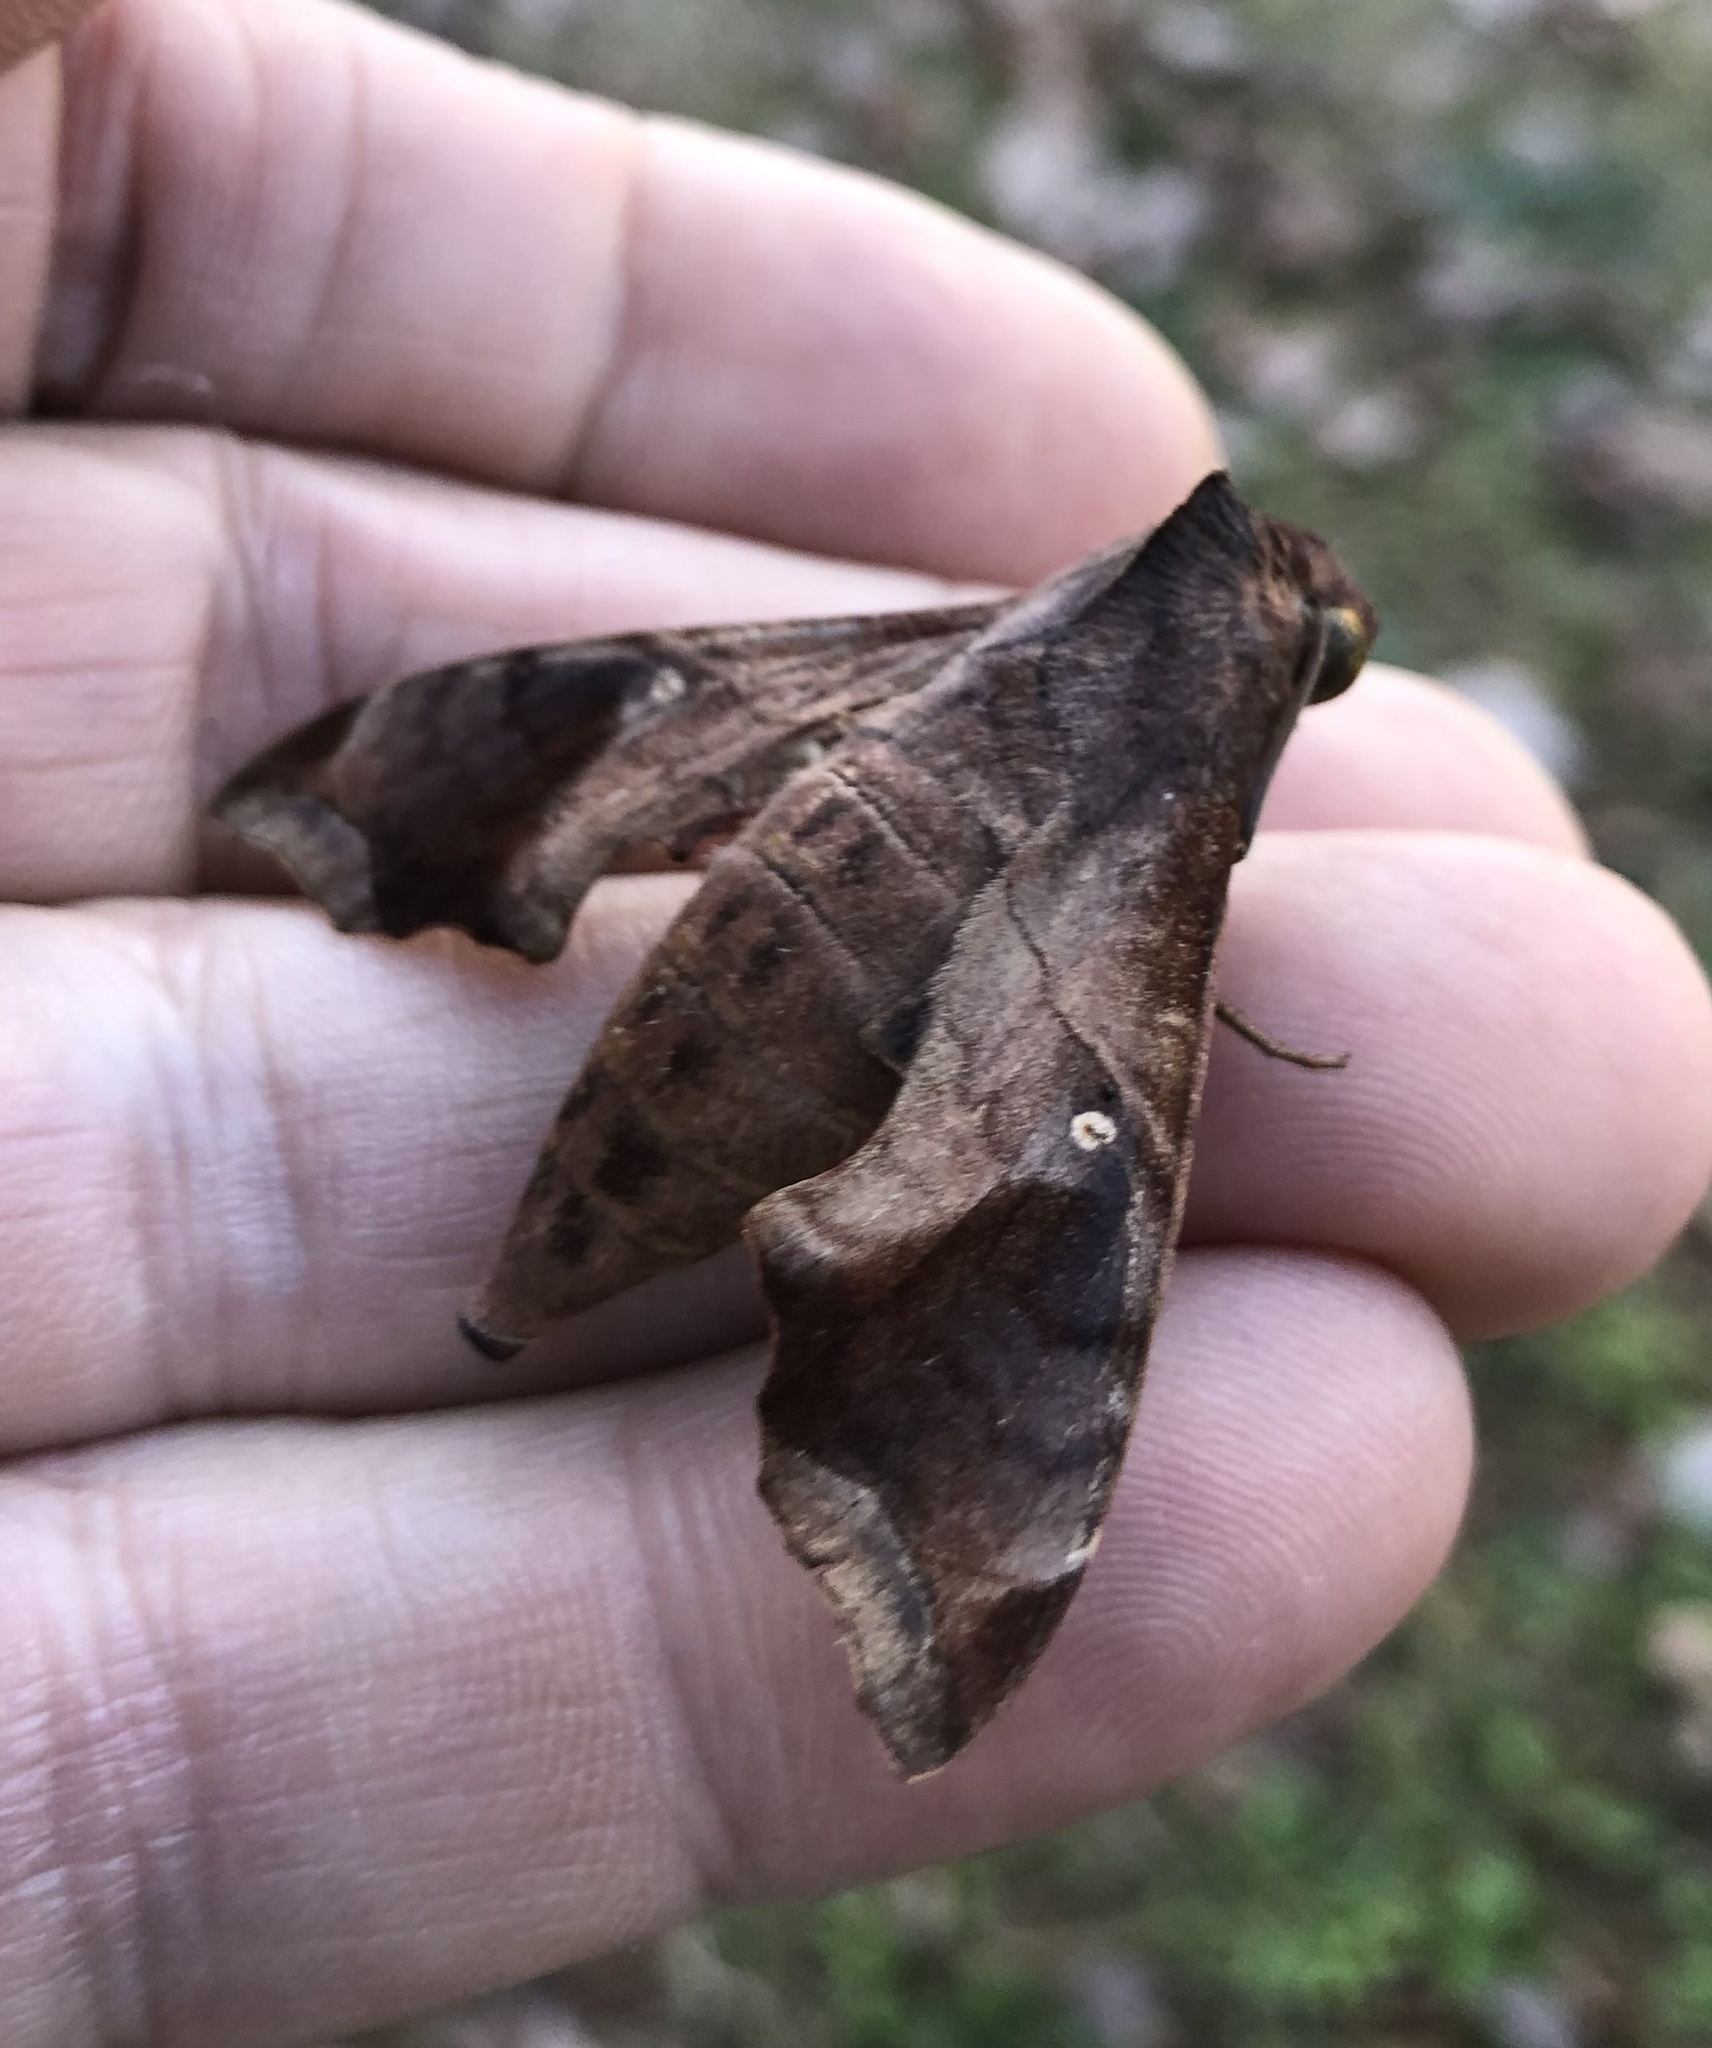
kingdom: Animalia
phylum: Arthropoda
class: Insecta
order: Lepidoptera
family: Sphingidae
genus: Enyo
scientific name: Enyo lugubris
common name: Mournful sphinx
